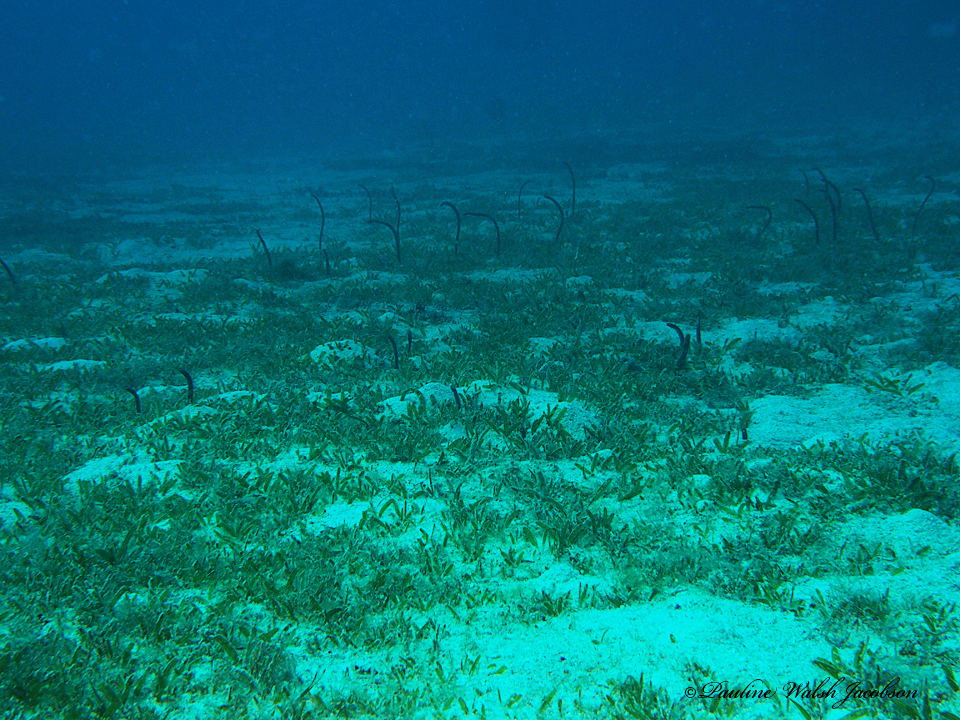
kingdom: Animalia
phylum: Chordata
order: Anguilliformes
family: Congridae
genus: Heteroconger
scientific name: Heteroconger longissimus
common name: Garden eel
